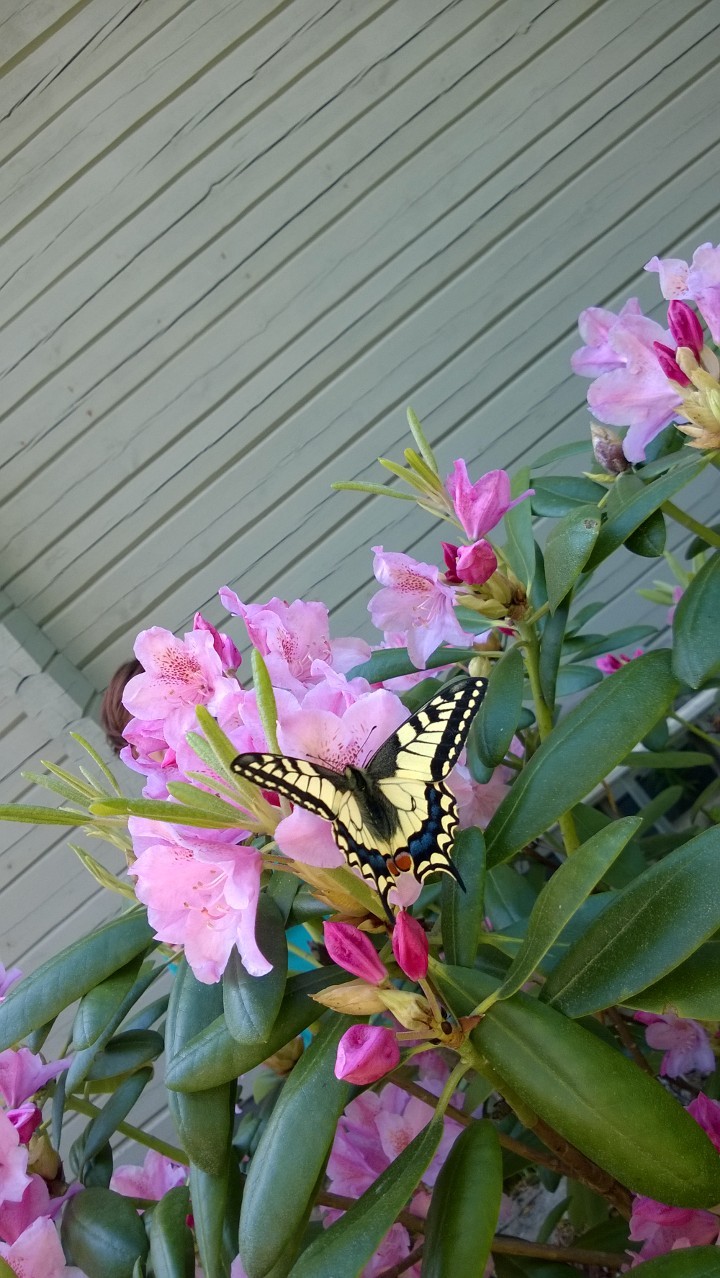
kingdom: Animalia
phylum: Arthropoda
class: Insecta
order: Lepidoptera
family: Papilionidae
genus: Papilio
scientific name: Papilio machaon
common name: Swallowtail
